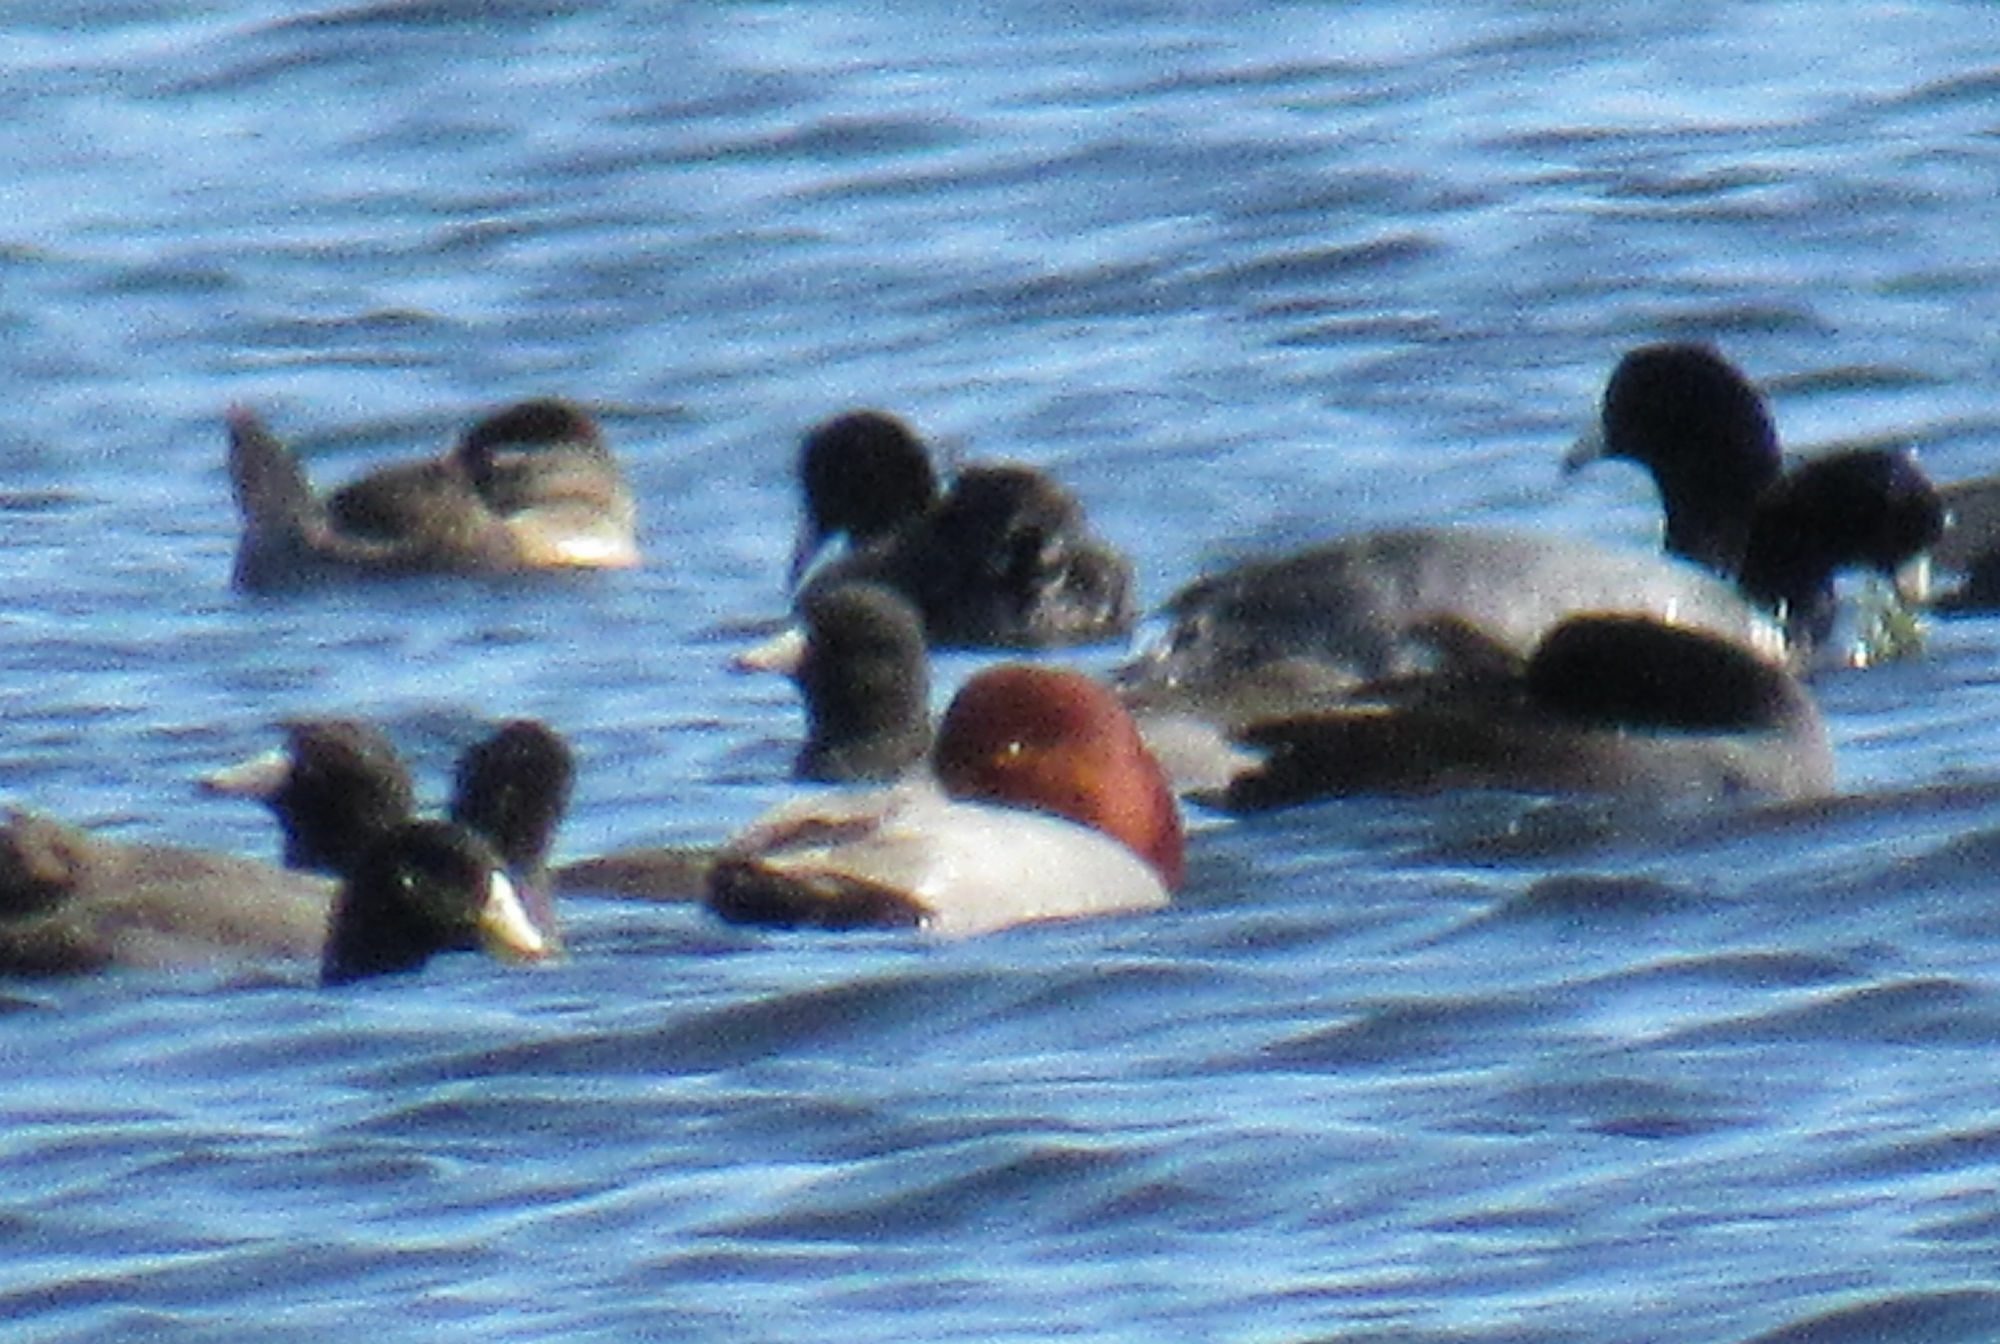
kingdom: Animalia
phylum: Chordata
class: Aves
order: Anseriformes
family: Anatidae
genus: Aythya
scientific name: Aythya americana
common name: Redhead
